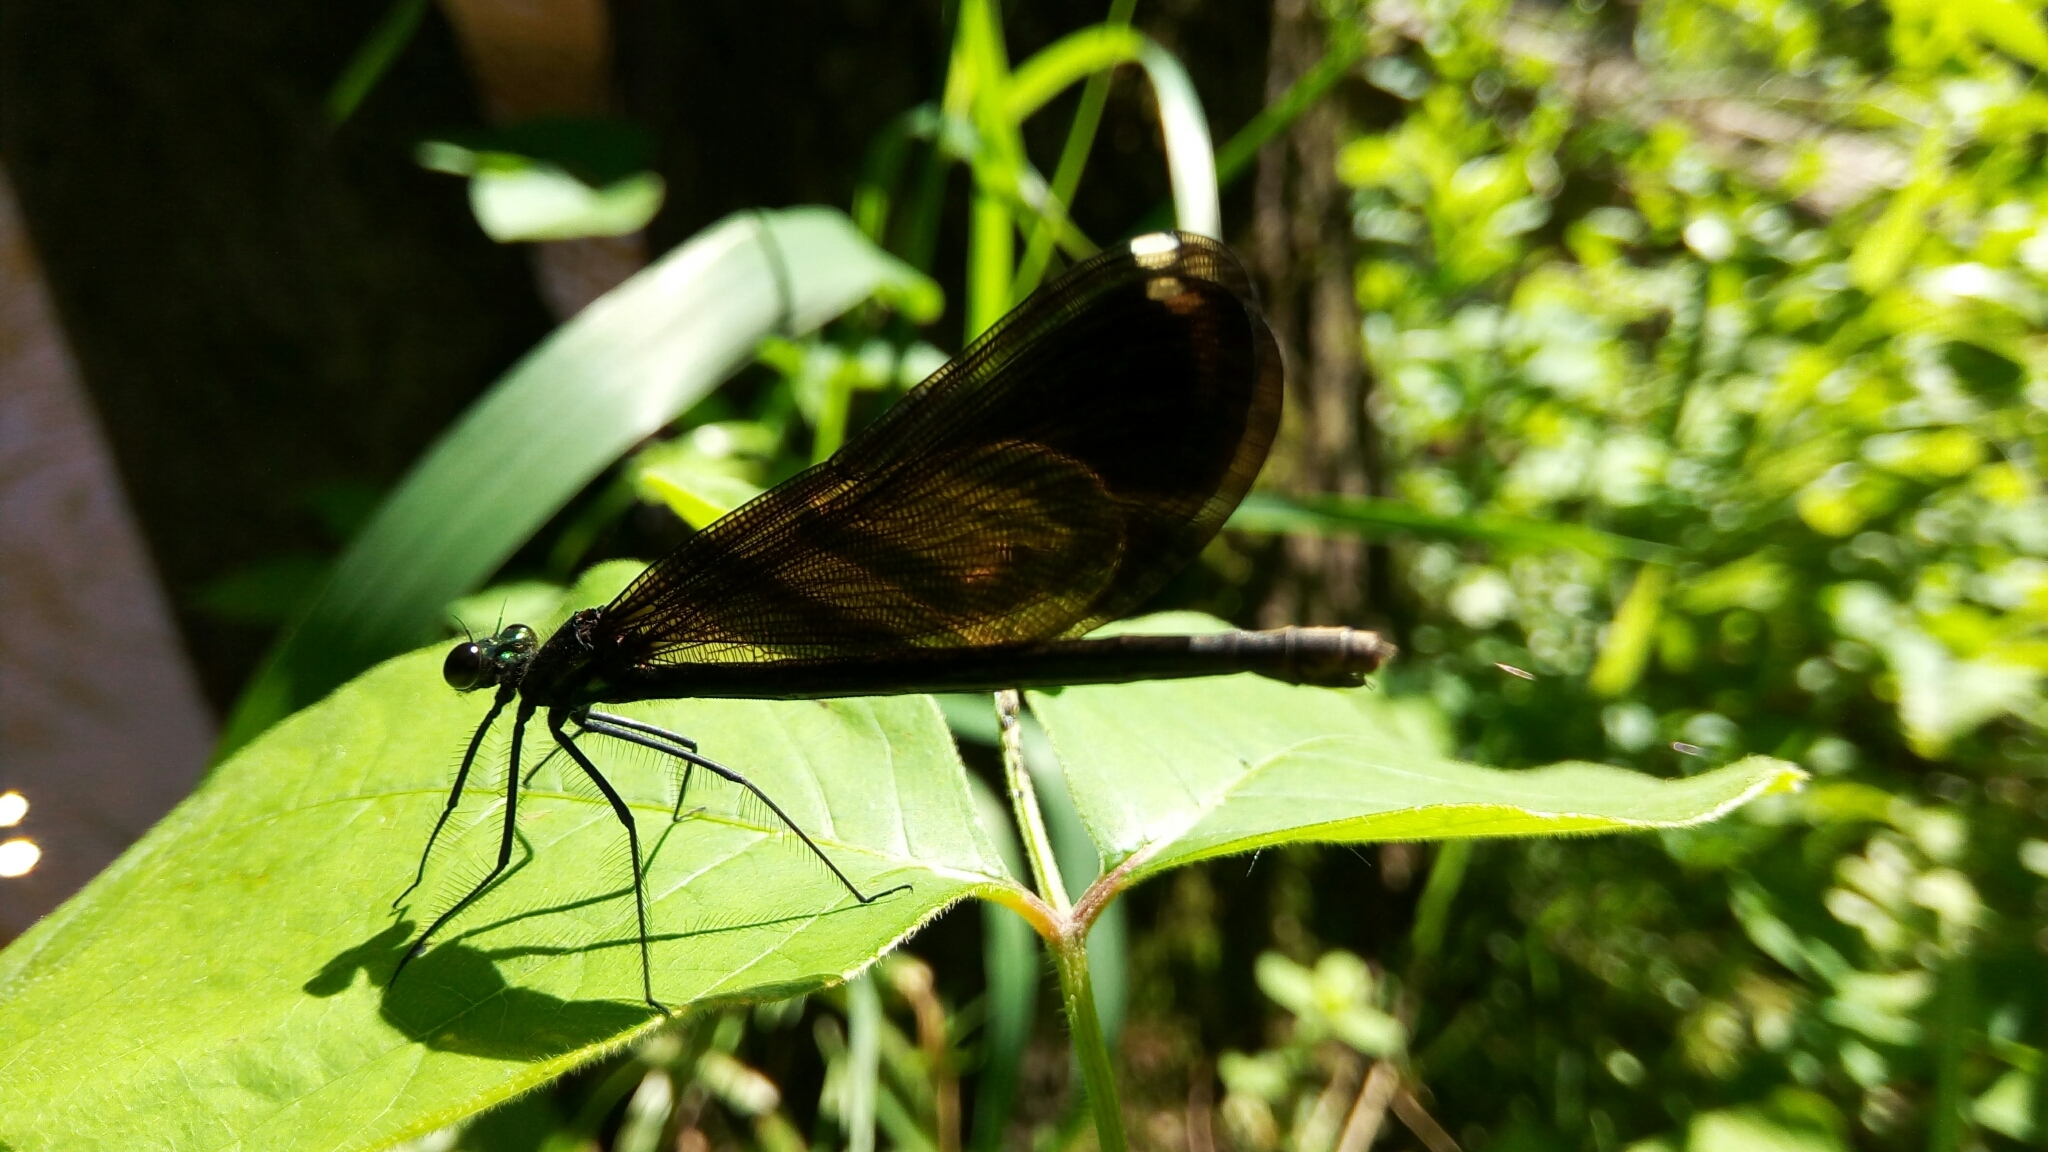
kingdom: Animalia
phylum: Arthropoda
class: Insecta
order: Odonata
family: Calopterygidae
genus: Calopteryx
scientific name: Calopteryx maculata
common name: Ebony jewelwing
